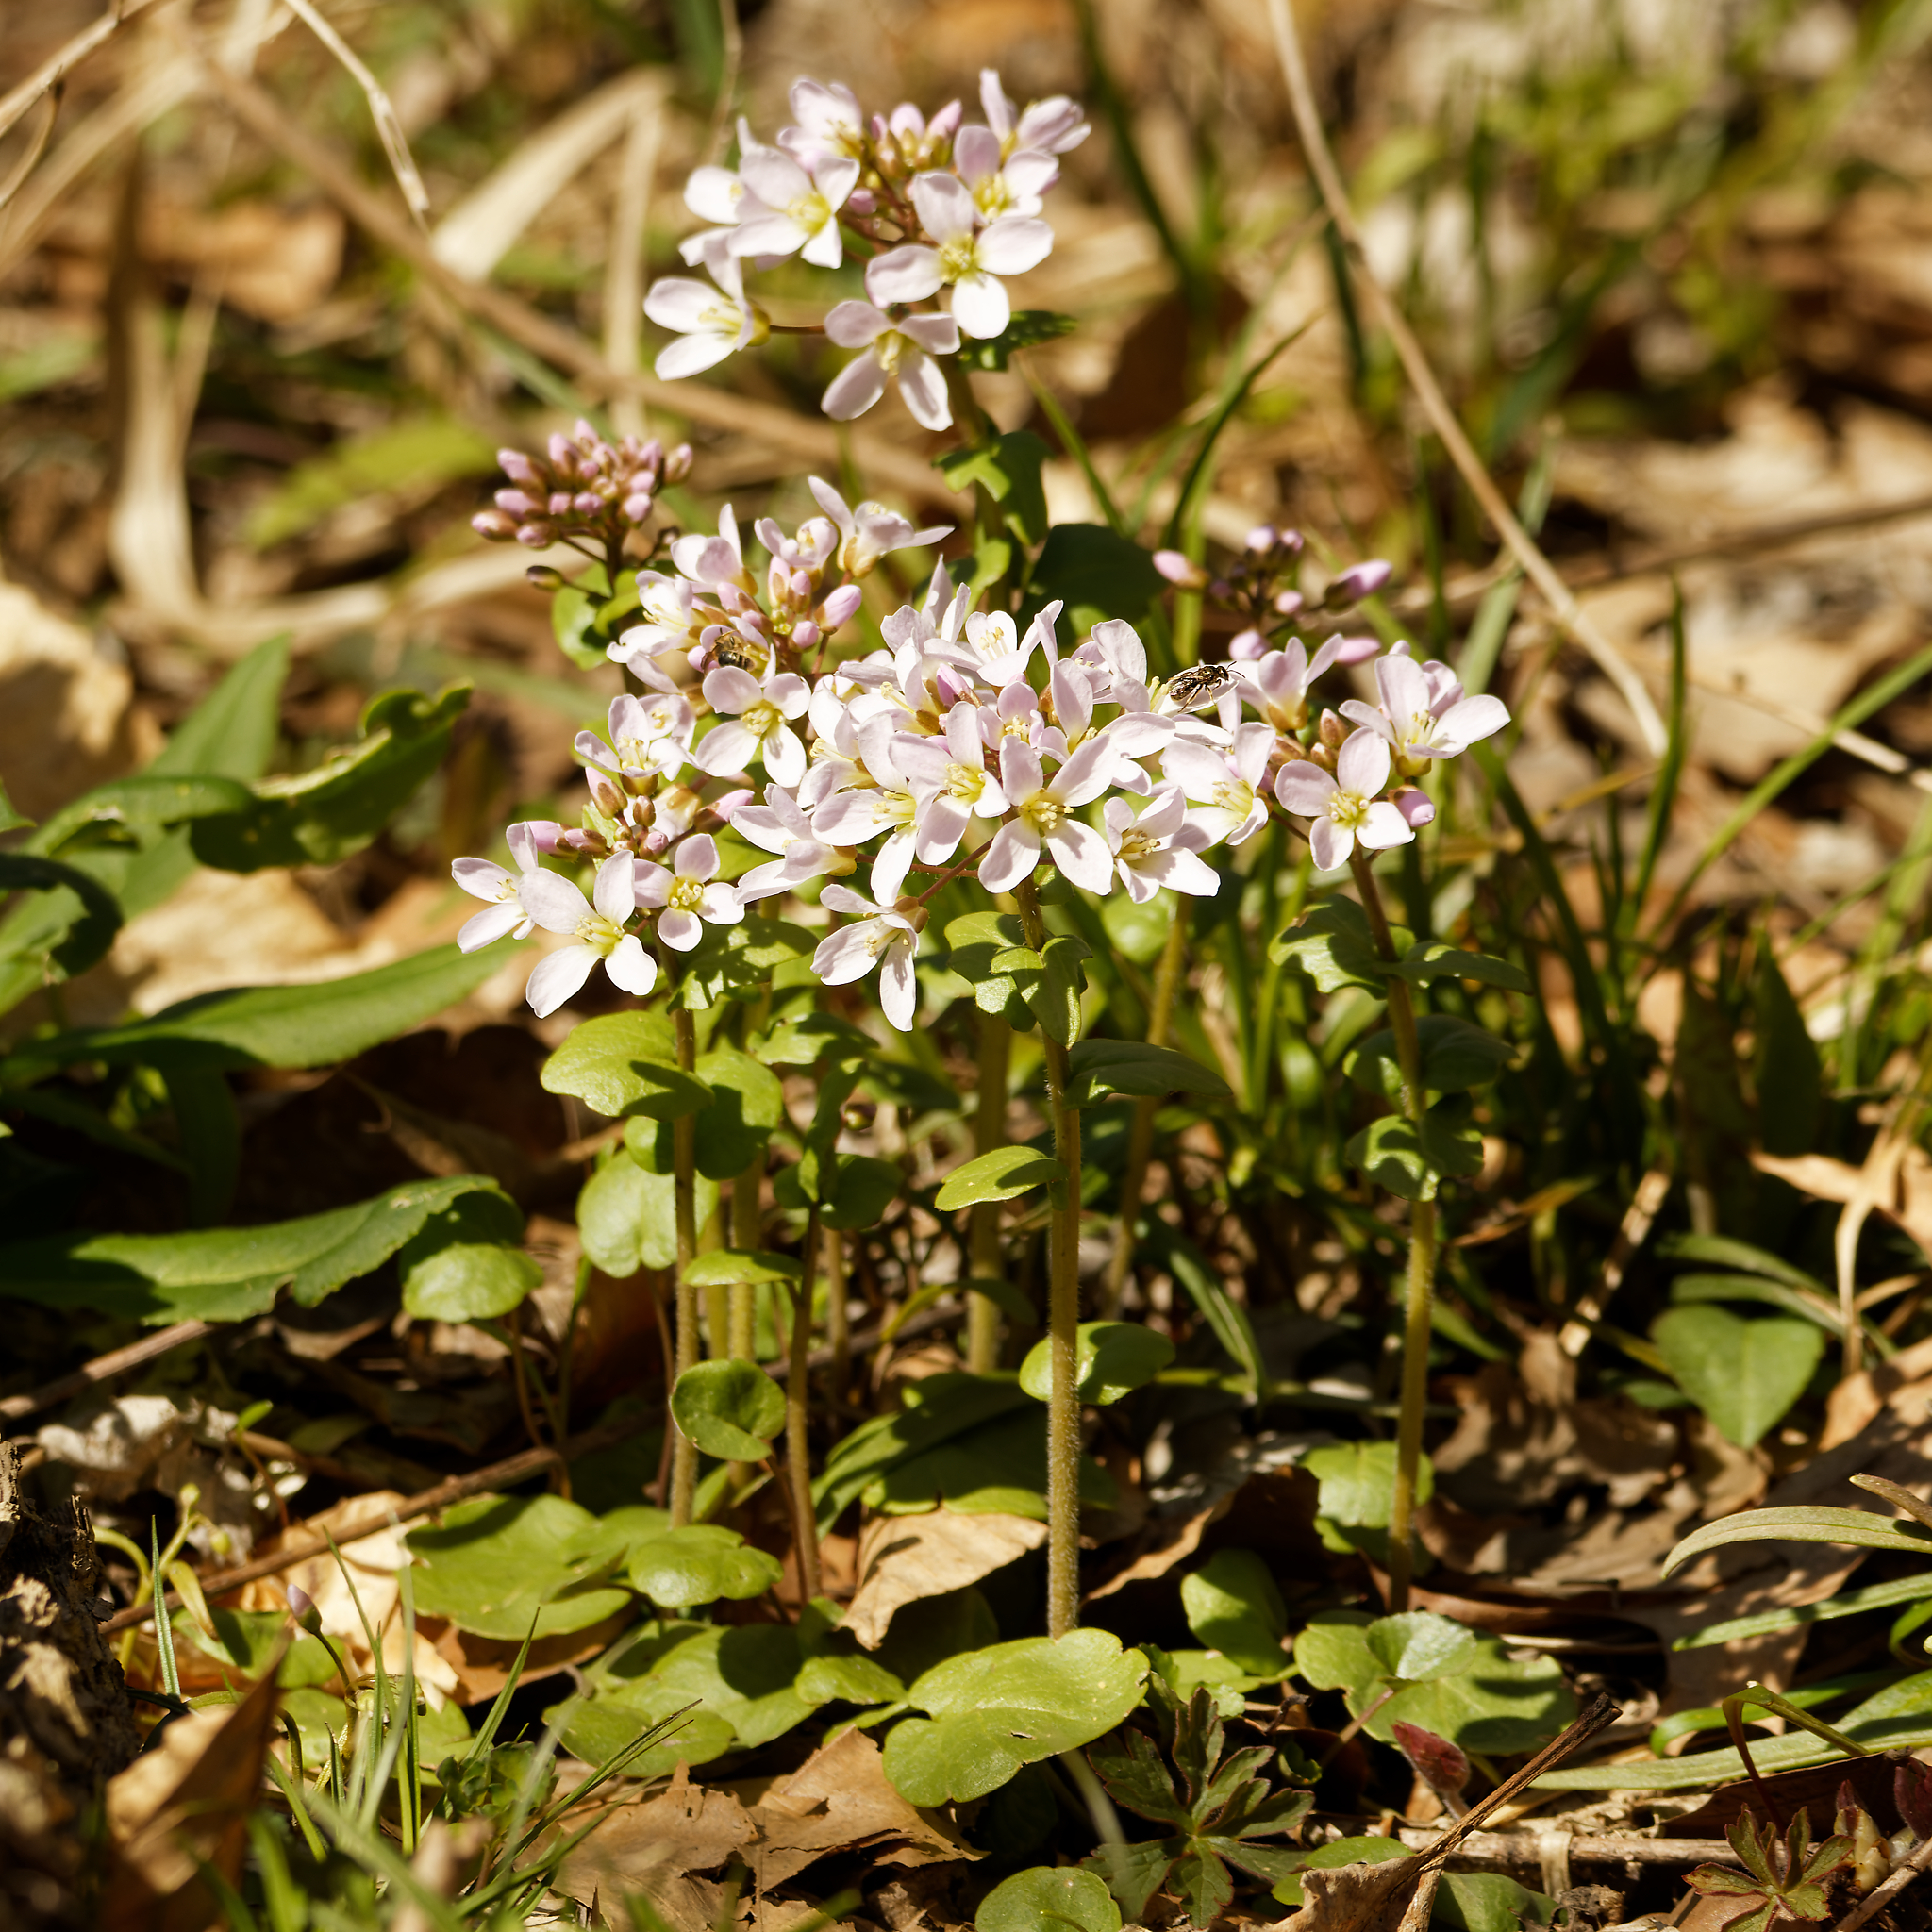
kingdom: Plantae
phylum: Tracheophyta
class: Magnoliopsida
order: Brassicales
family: Brassicaceae
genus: Cardamine
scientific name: Cardamine douglassii
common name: Purple cress
